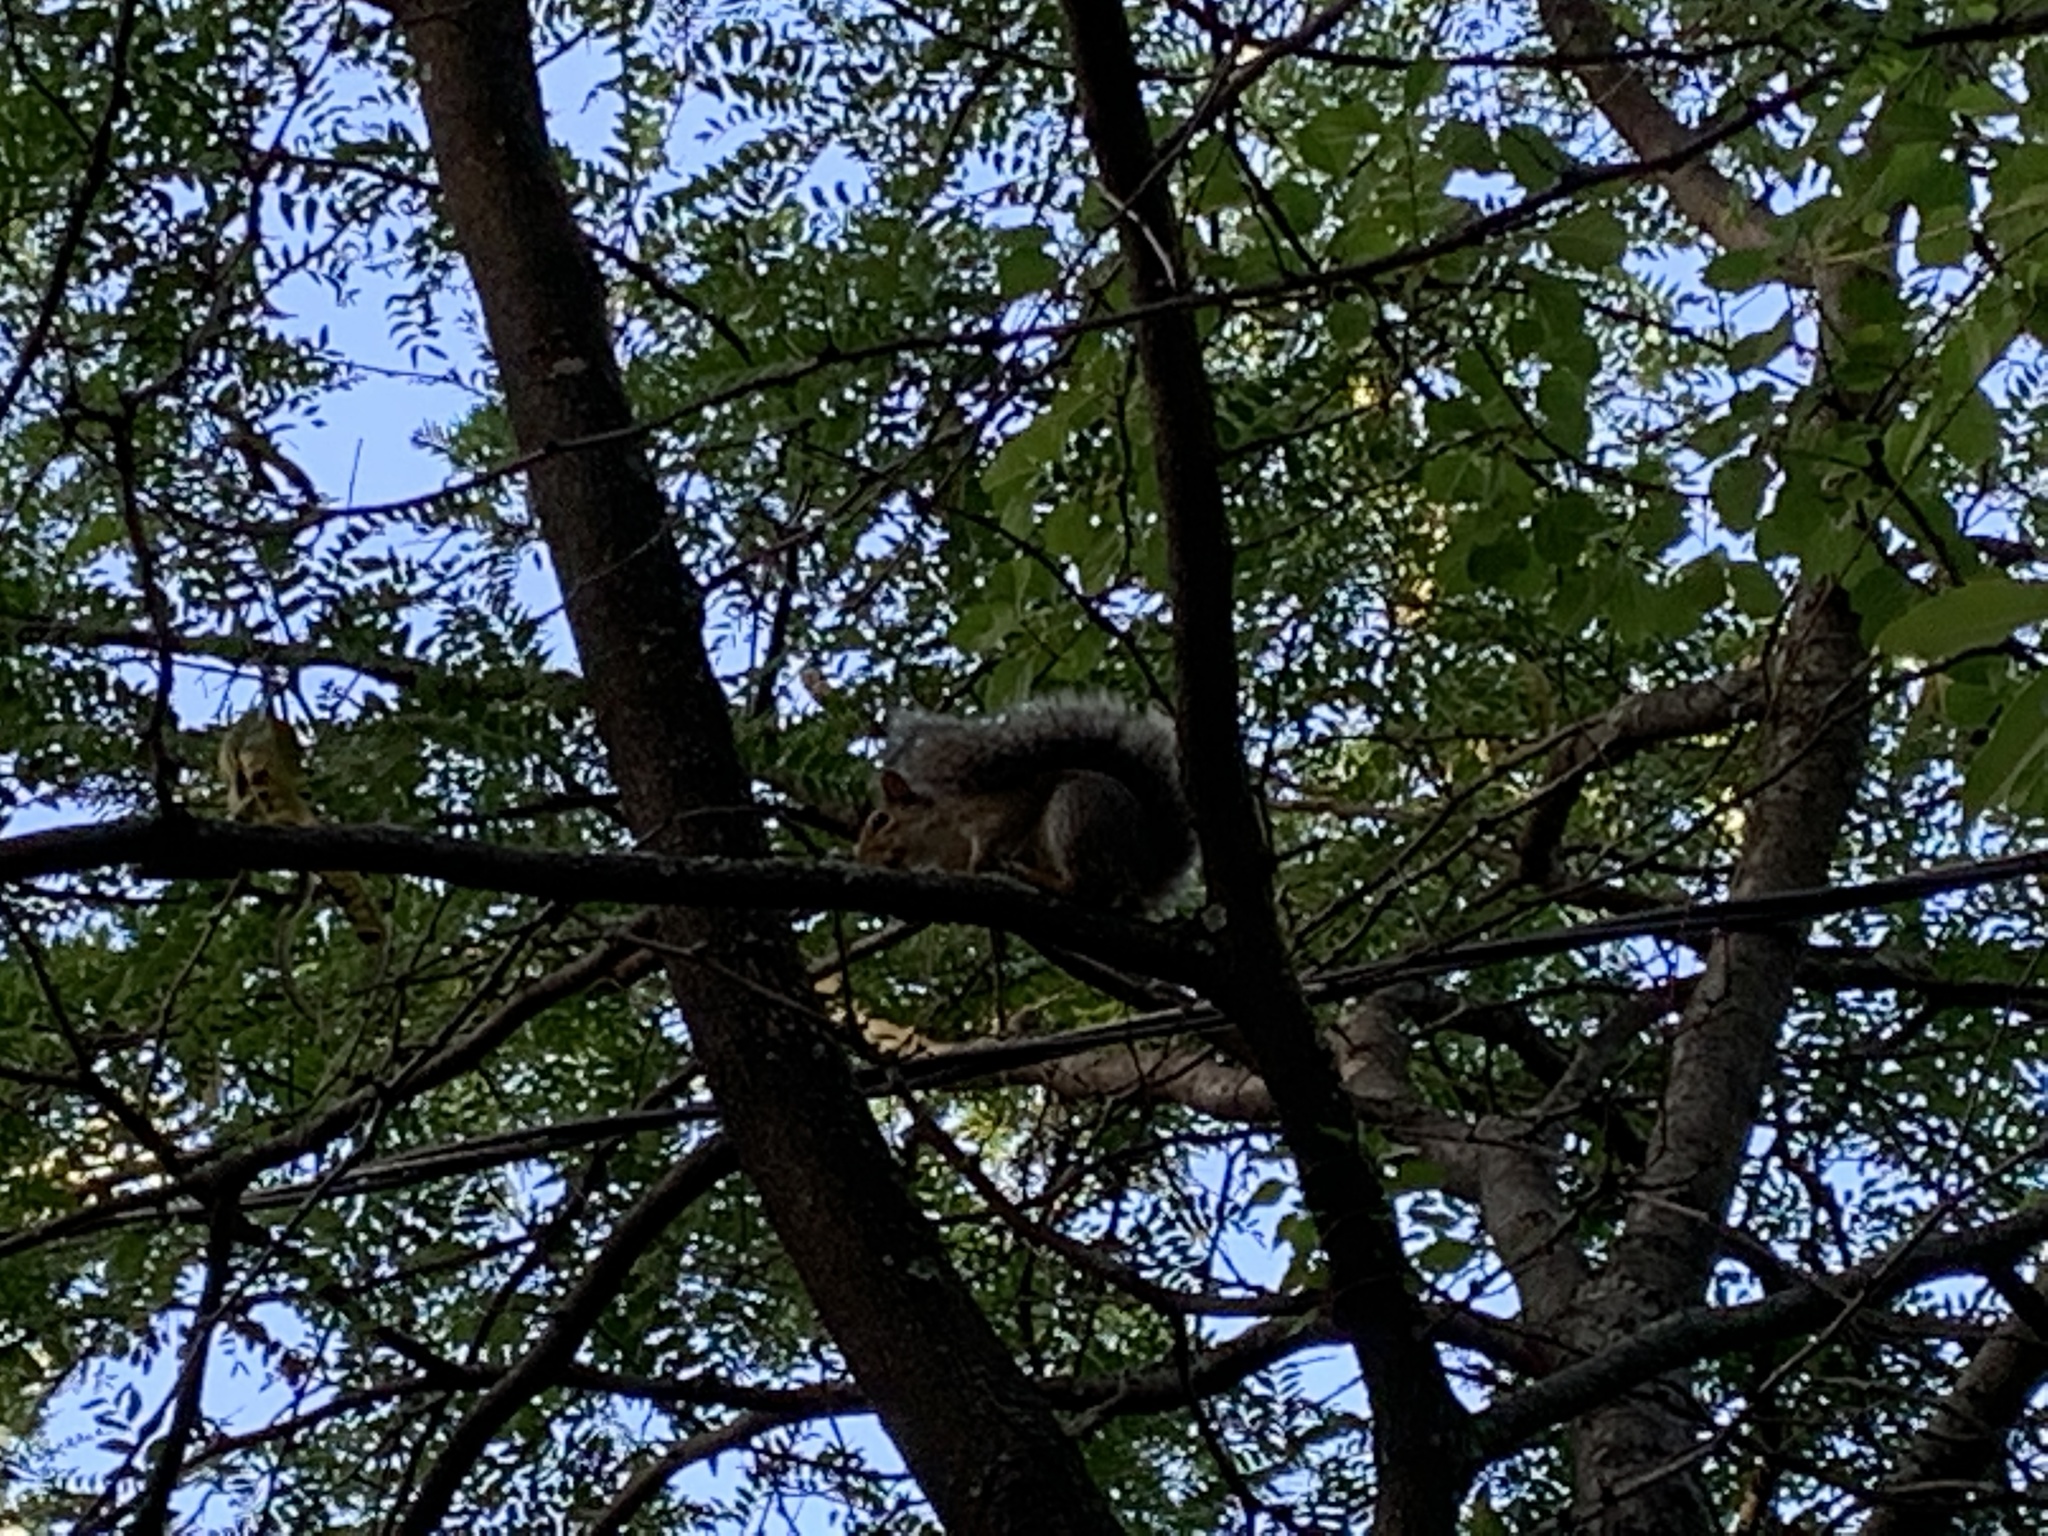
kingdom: Animalia
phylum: Chordata
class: Mammalia
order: Rodentia
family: Sciuridae
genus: Sciurus
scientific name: Sciurus carolinensis
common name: Eastern gray squirrel
